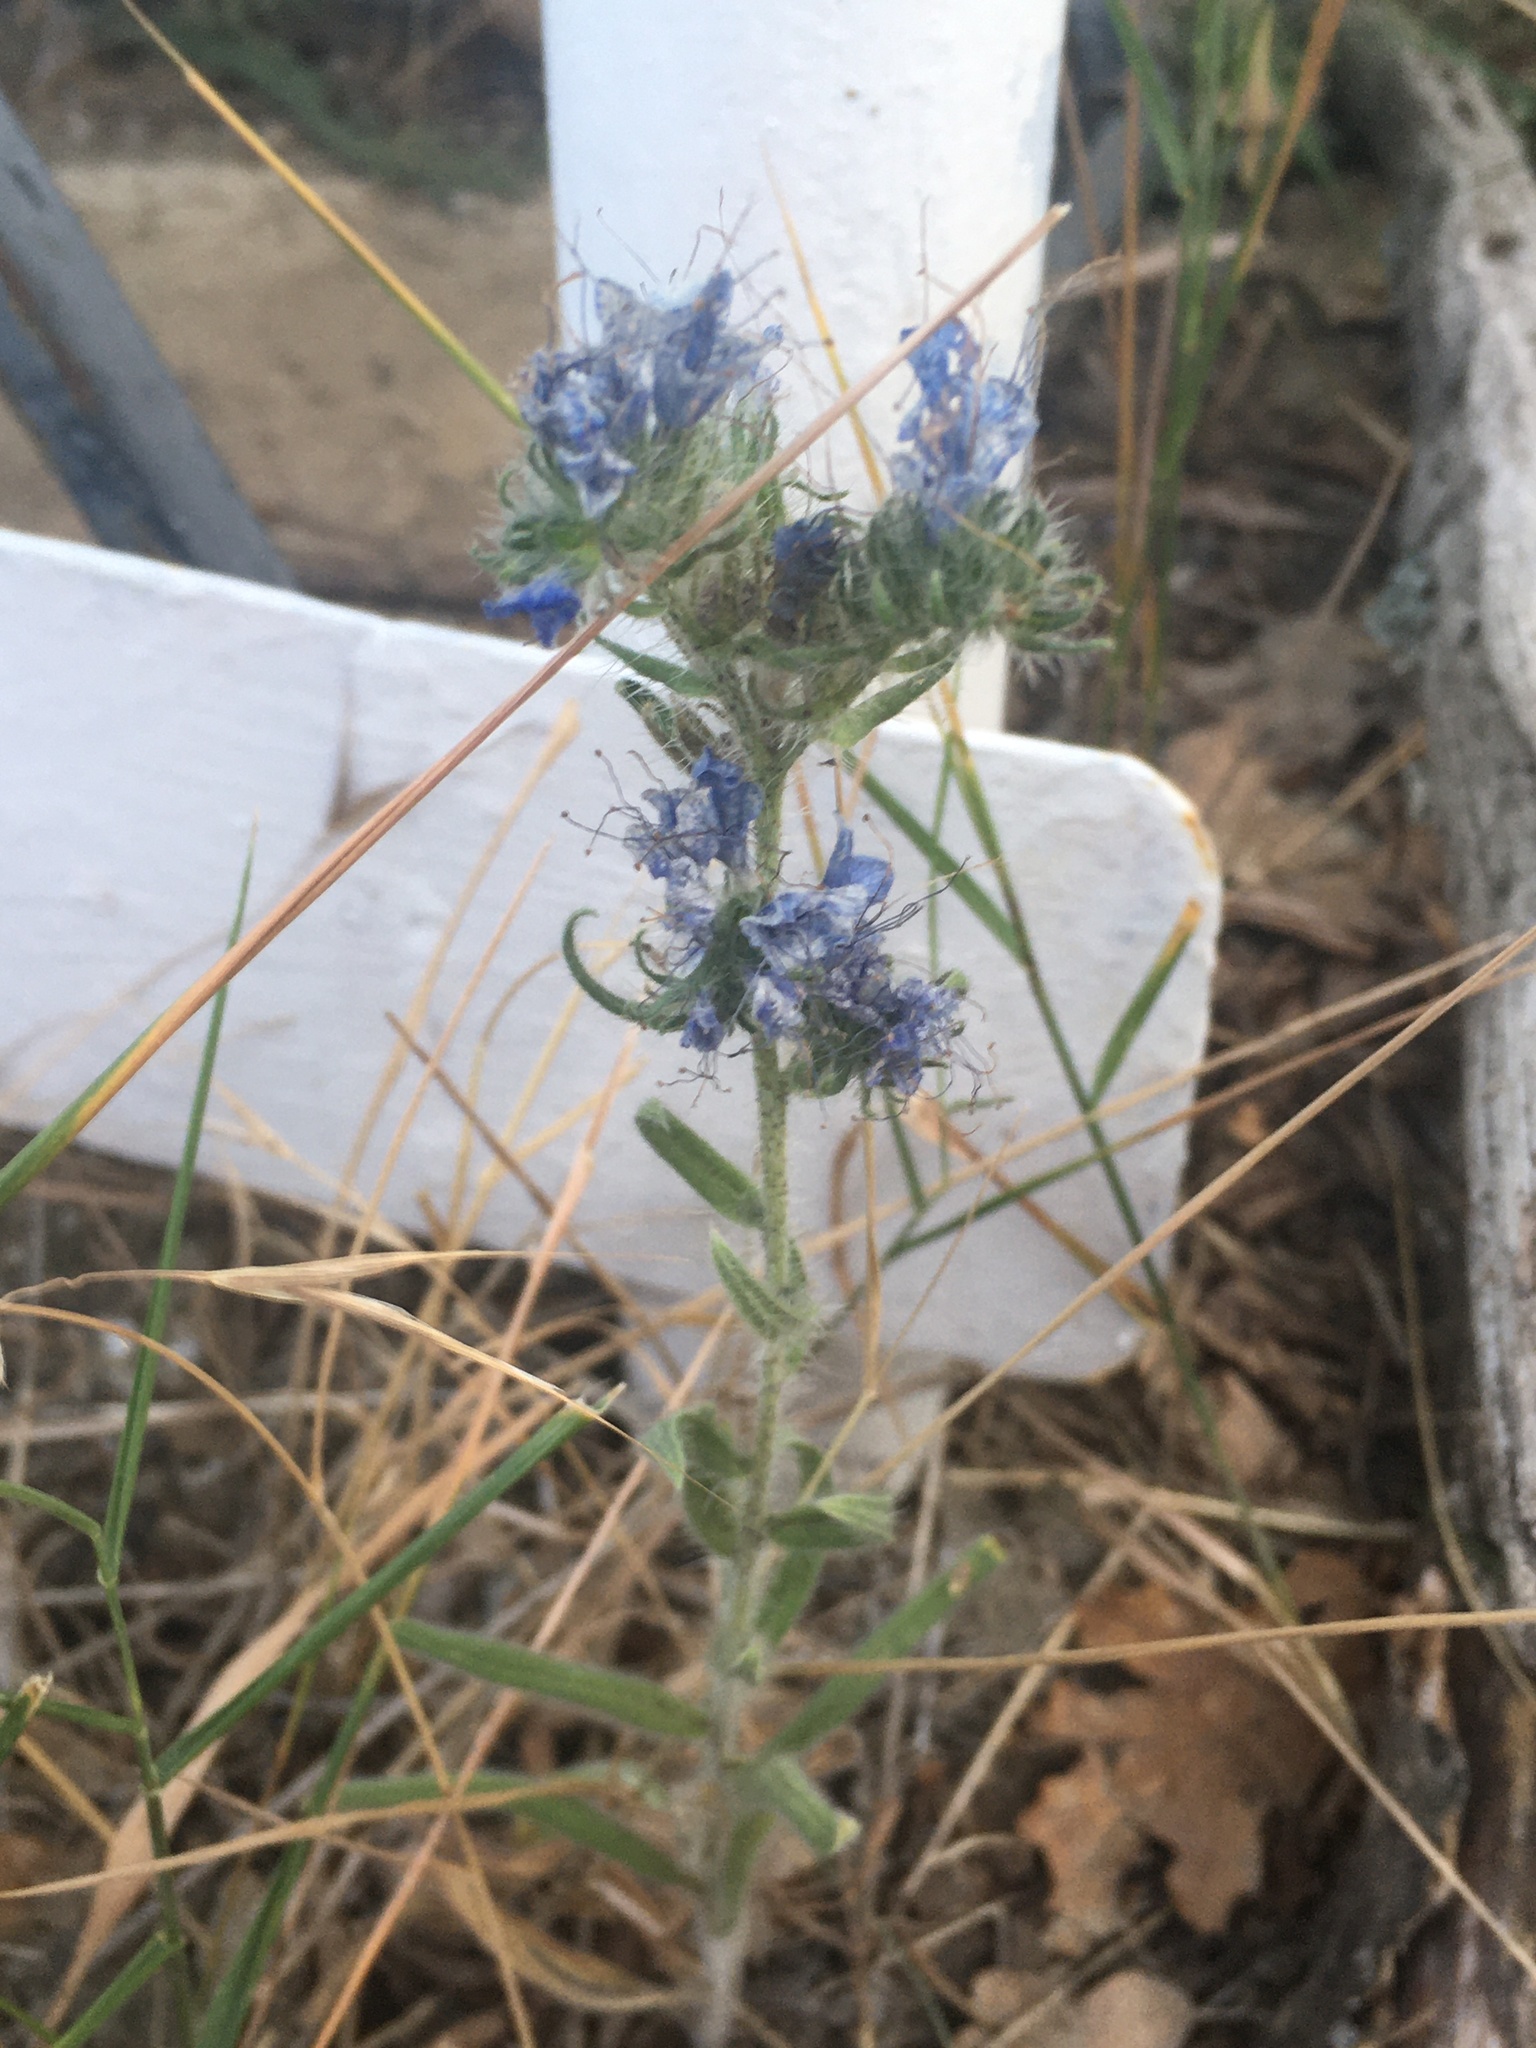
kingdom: Plantae
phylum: Tracheophyta
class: Magnoliopsida
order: Boraginales
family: Boraginaceae
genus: Echium
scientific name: Echium vulgare
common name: Common viper's bugloss
